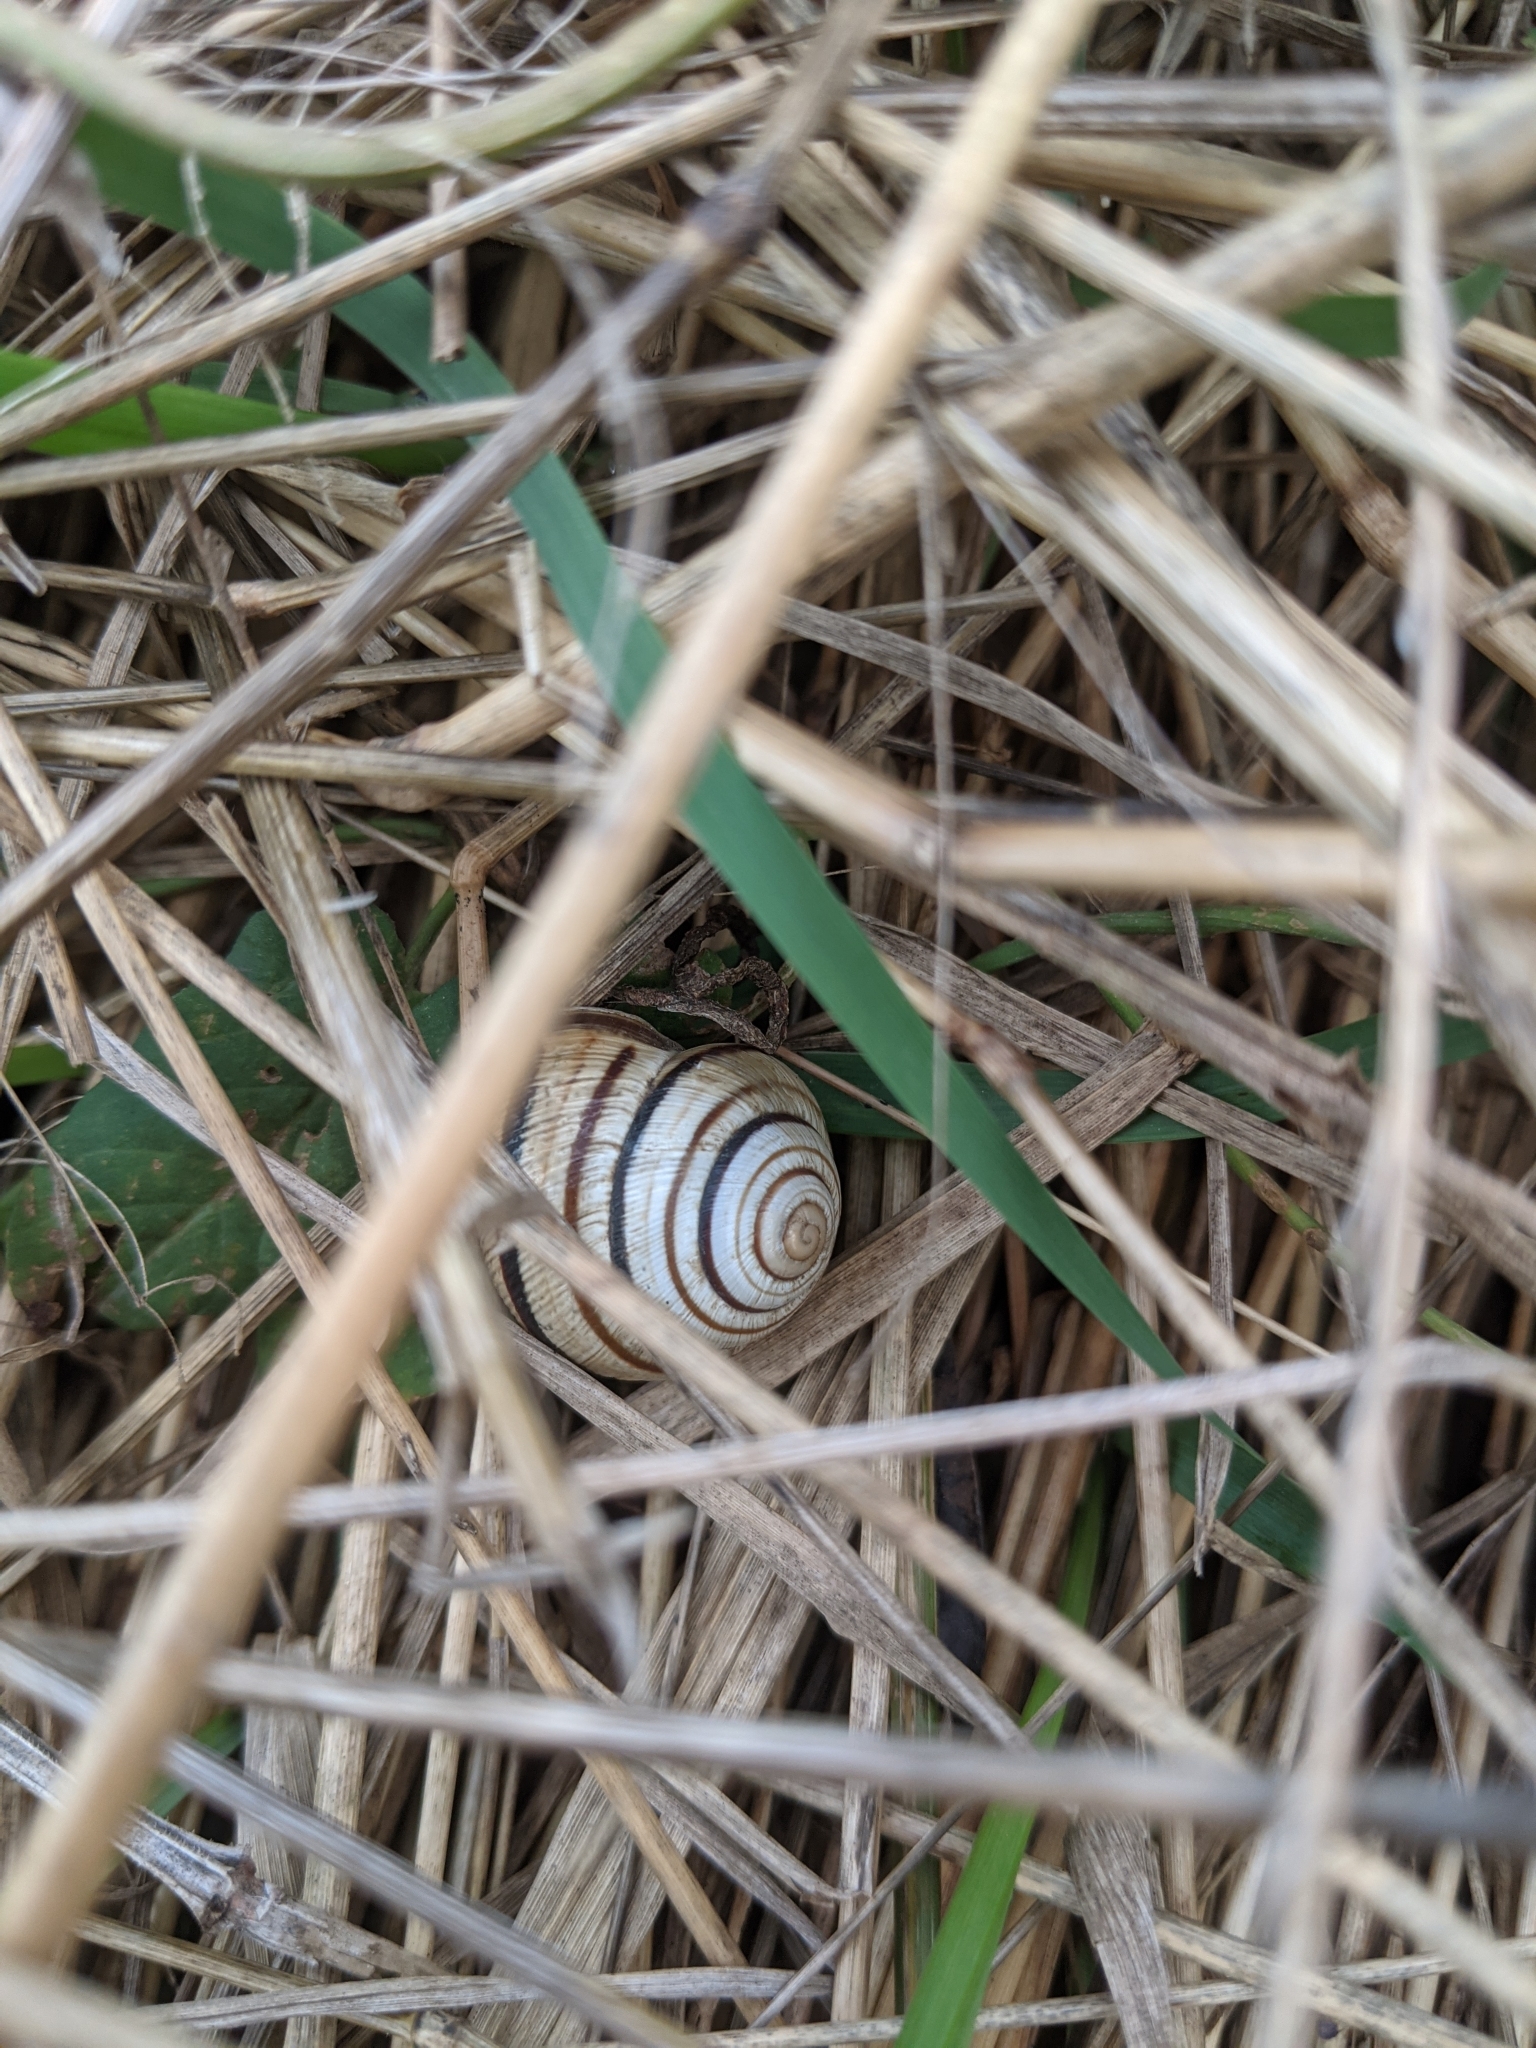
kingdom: Animalia
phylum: Mollusca
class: Gastropoda
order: Stylommatophora
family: Helicidae
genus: Caucasotachea
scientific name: Caucasotachea vindobonensis
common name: European helicid land snail
